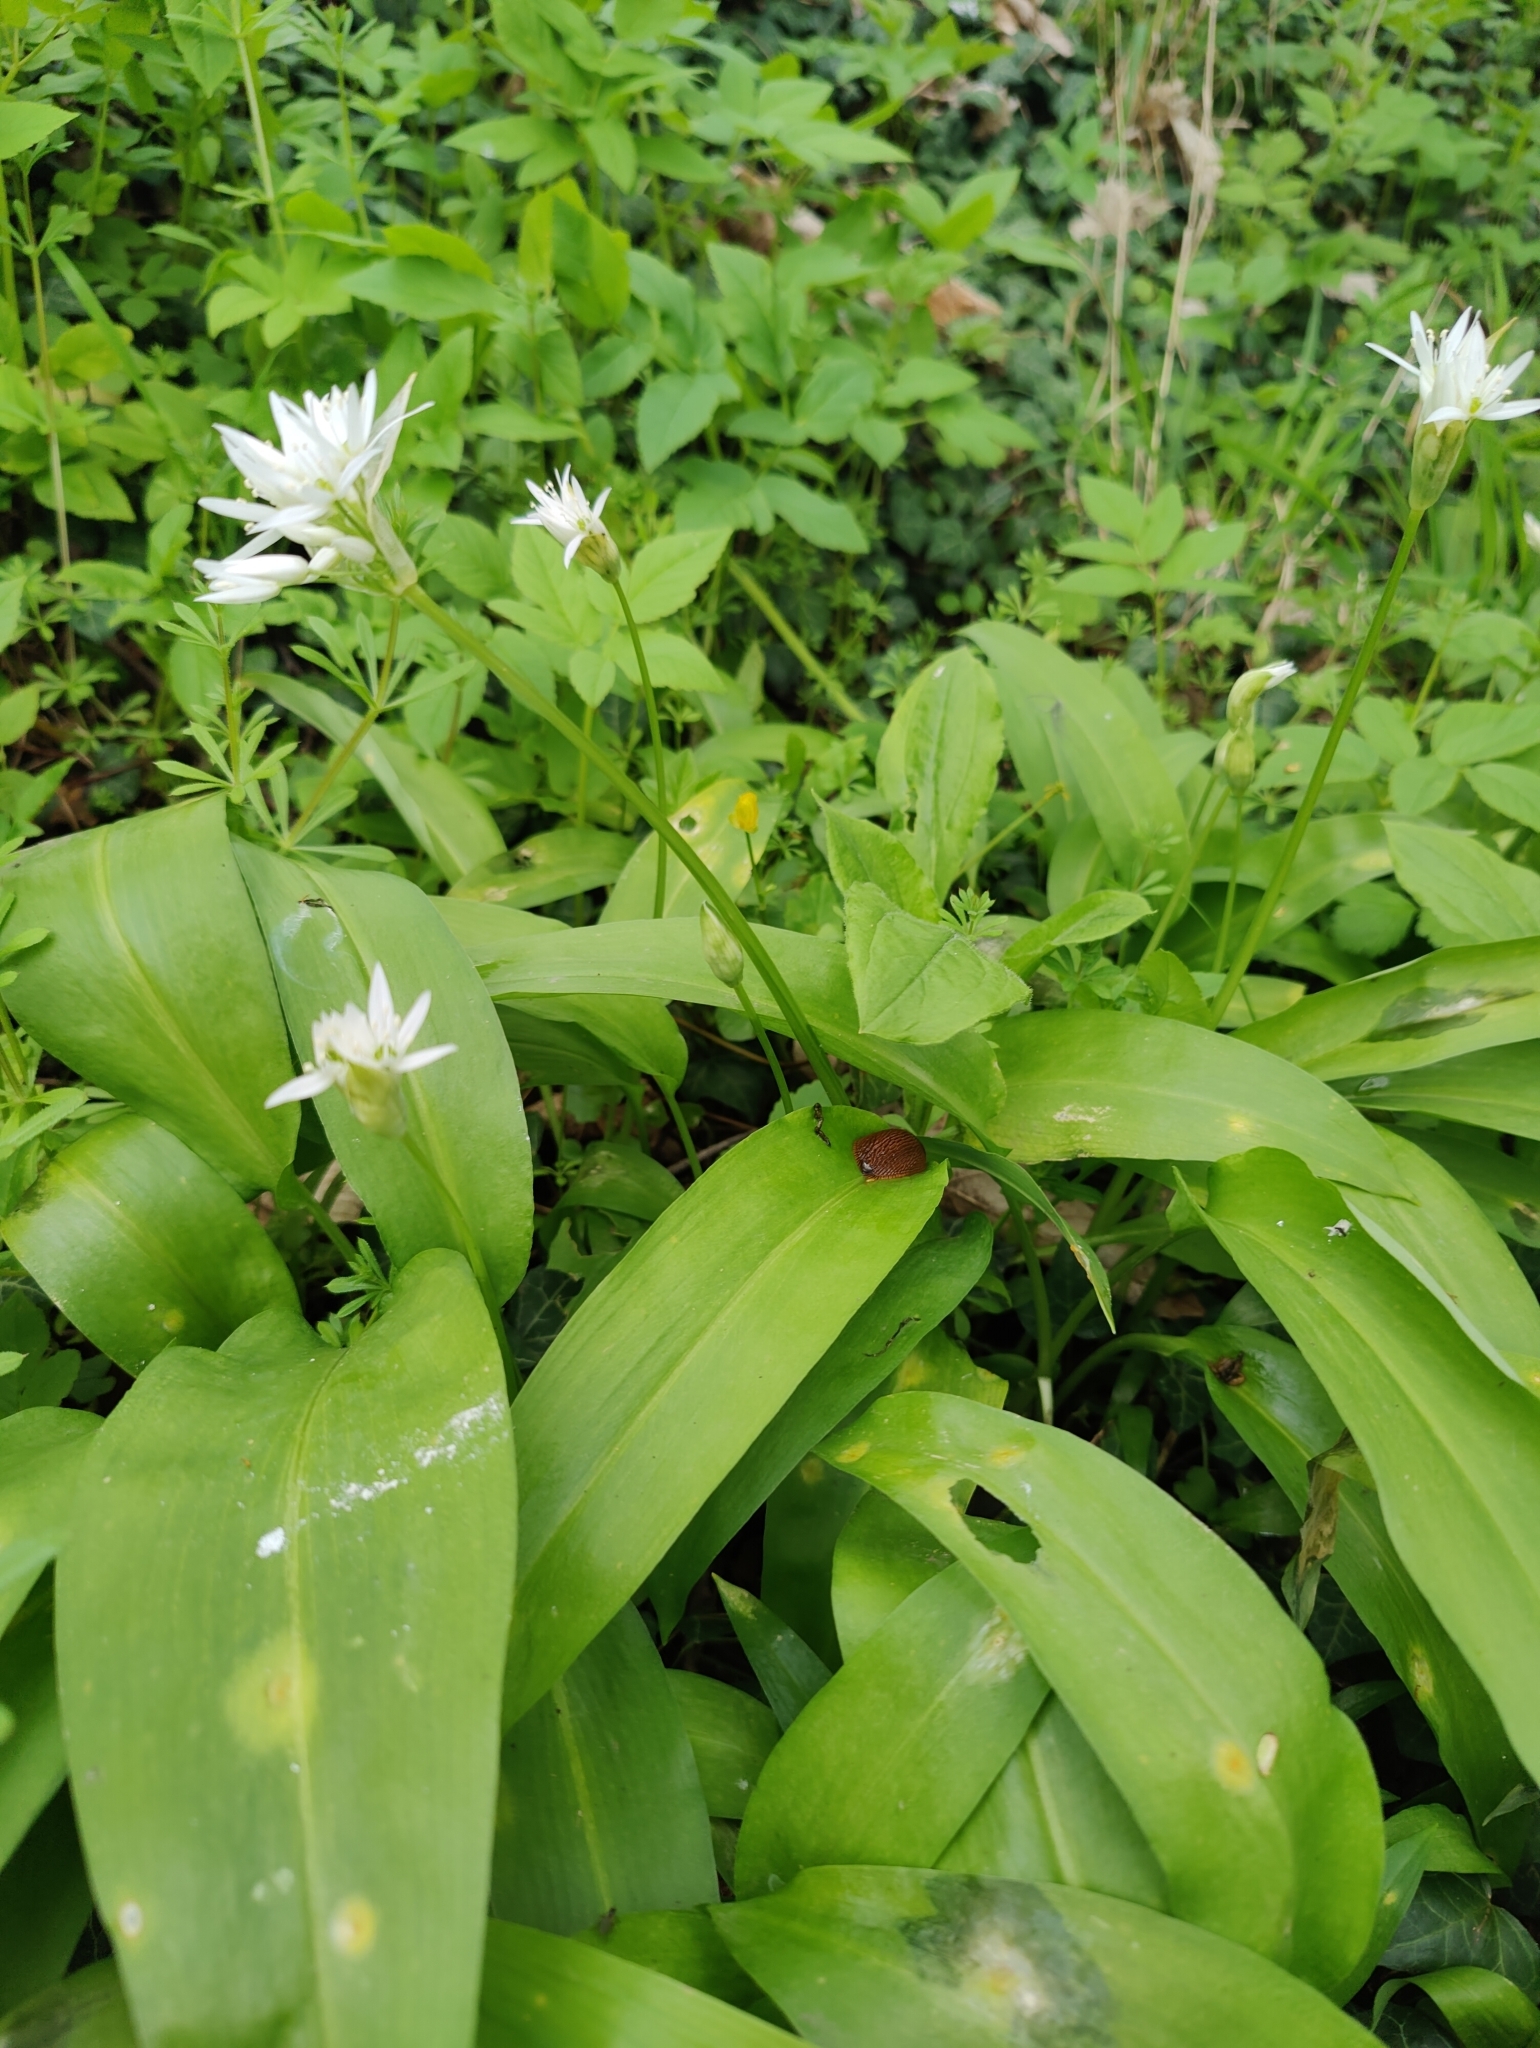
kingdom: Plantae
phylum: Tracheophyta
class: Liliopsida
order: Asparagales
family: Amaryllidaceae
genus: Allium
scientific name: Allium ursinum
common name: Ramsons
